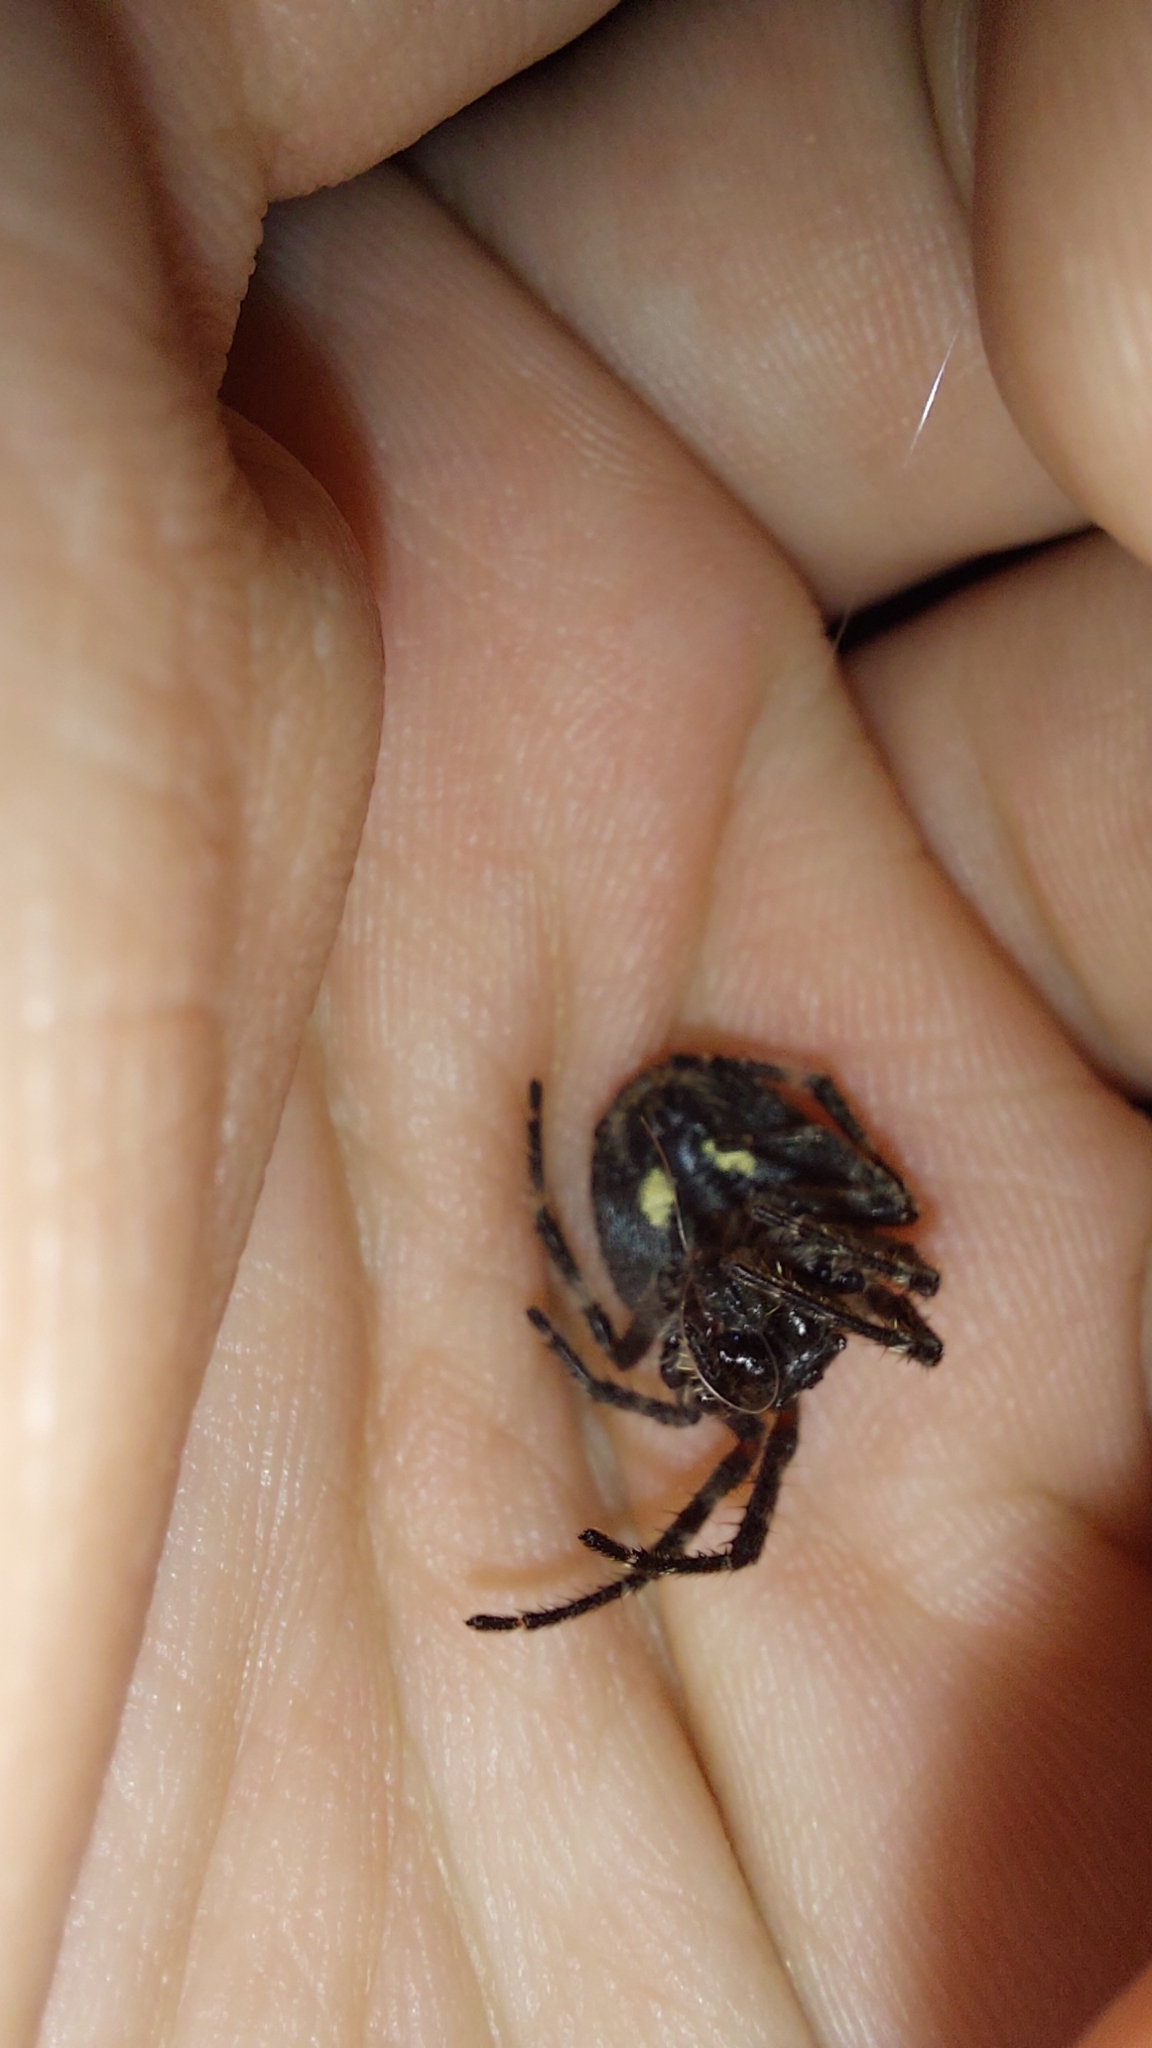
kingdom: Animalia
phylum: Arthropoda
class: Arachnida
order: Araneae
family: Araneidae
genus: Nuctenea
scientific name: Nuctenea umbratica
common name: Toad spider
